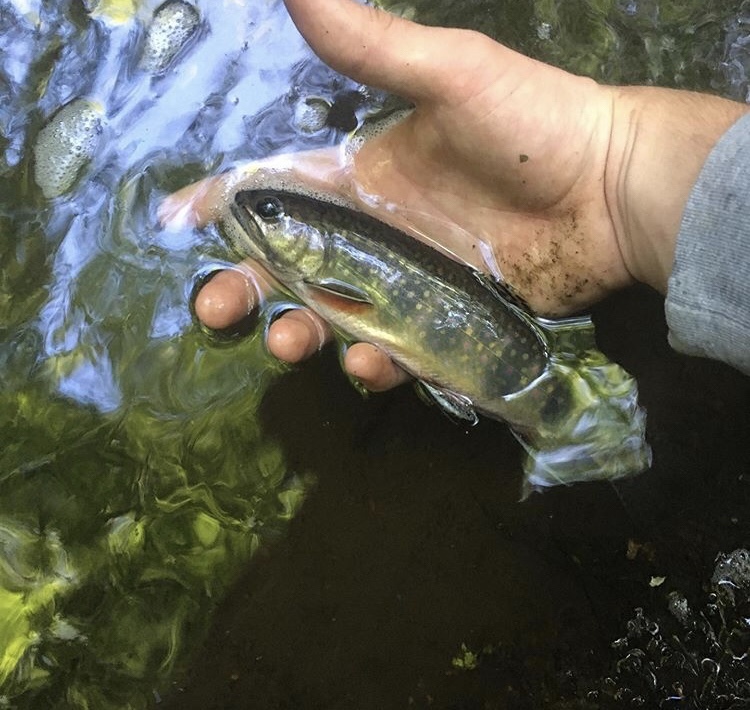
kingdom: Animalia
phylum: Chordata
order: Salmoniformes
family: Salmonidae
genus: Salvelinus
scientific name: Salvelinus fontinalis
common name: Brook trout
